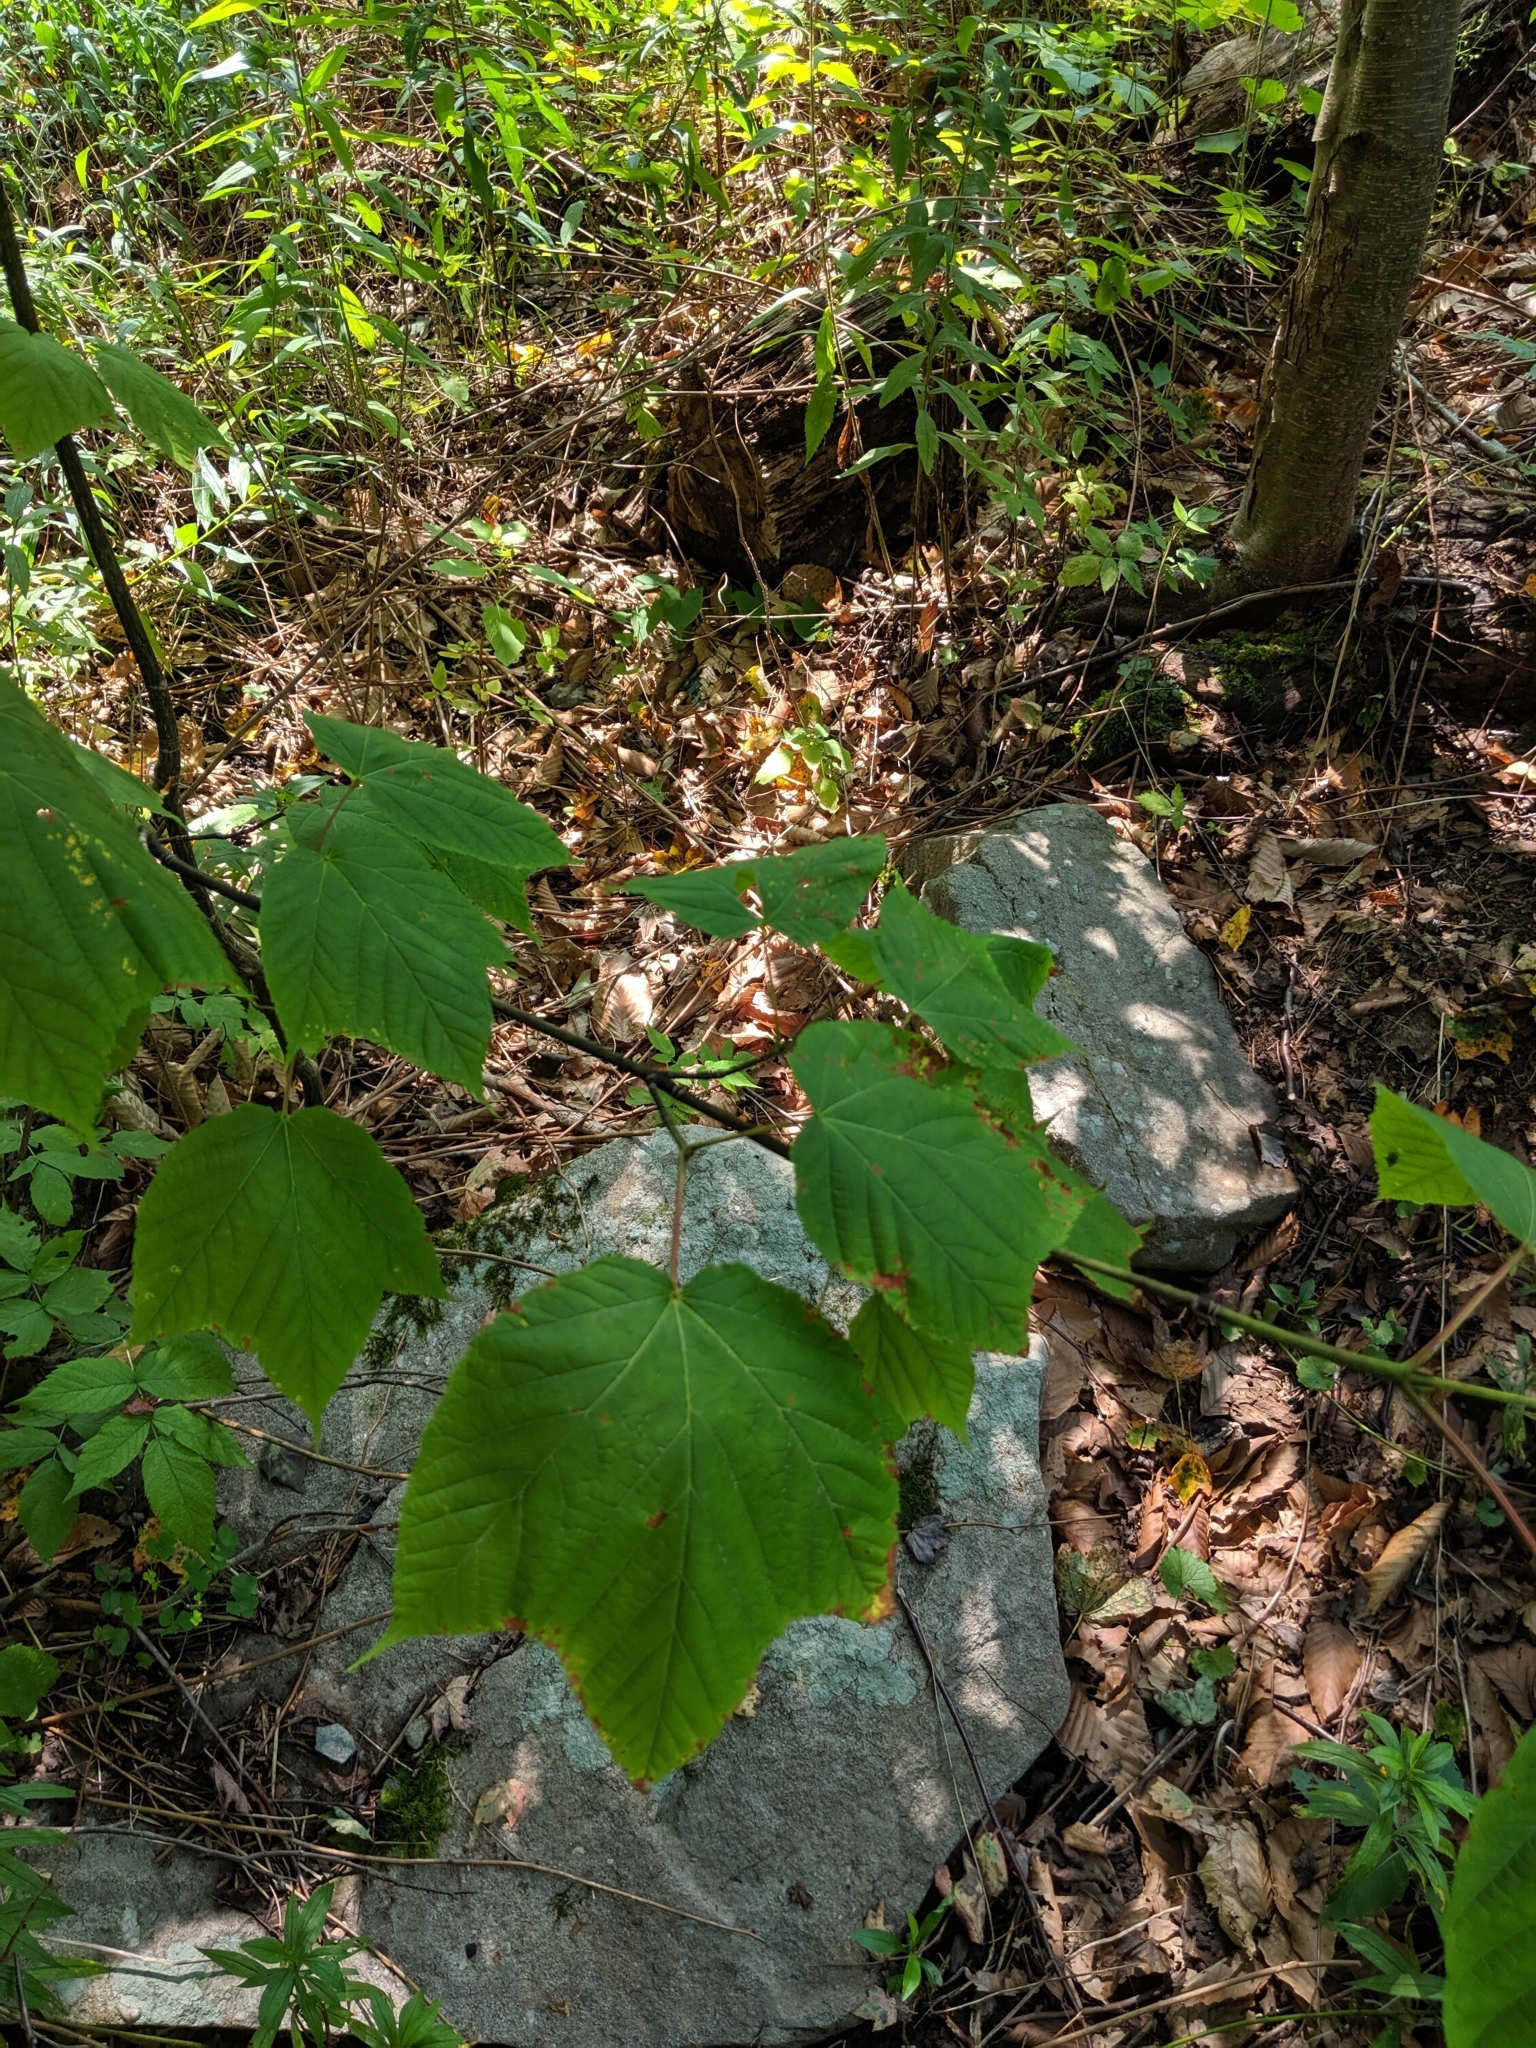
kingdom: Plantae
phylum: Tracheophyta
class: Magnoliopsida
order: Sapindales
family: Sapindaceae
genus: Acer
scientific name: Acer pensylvanicum
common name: Moosewood
